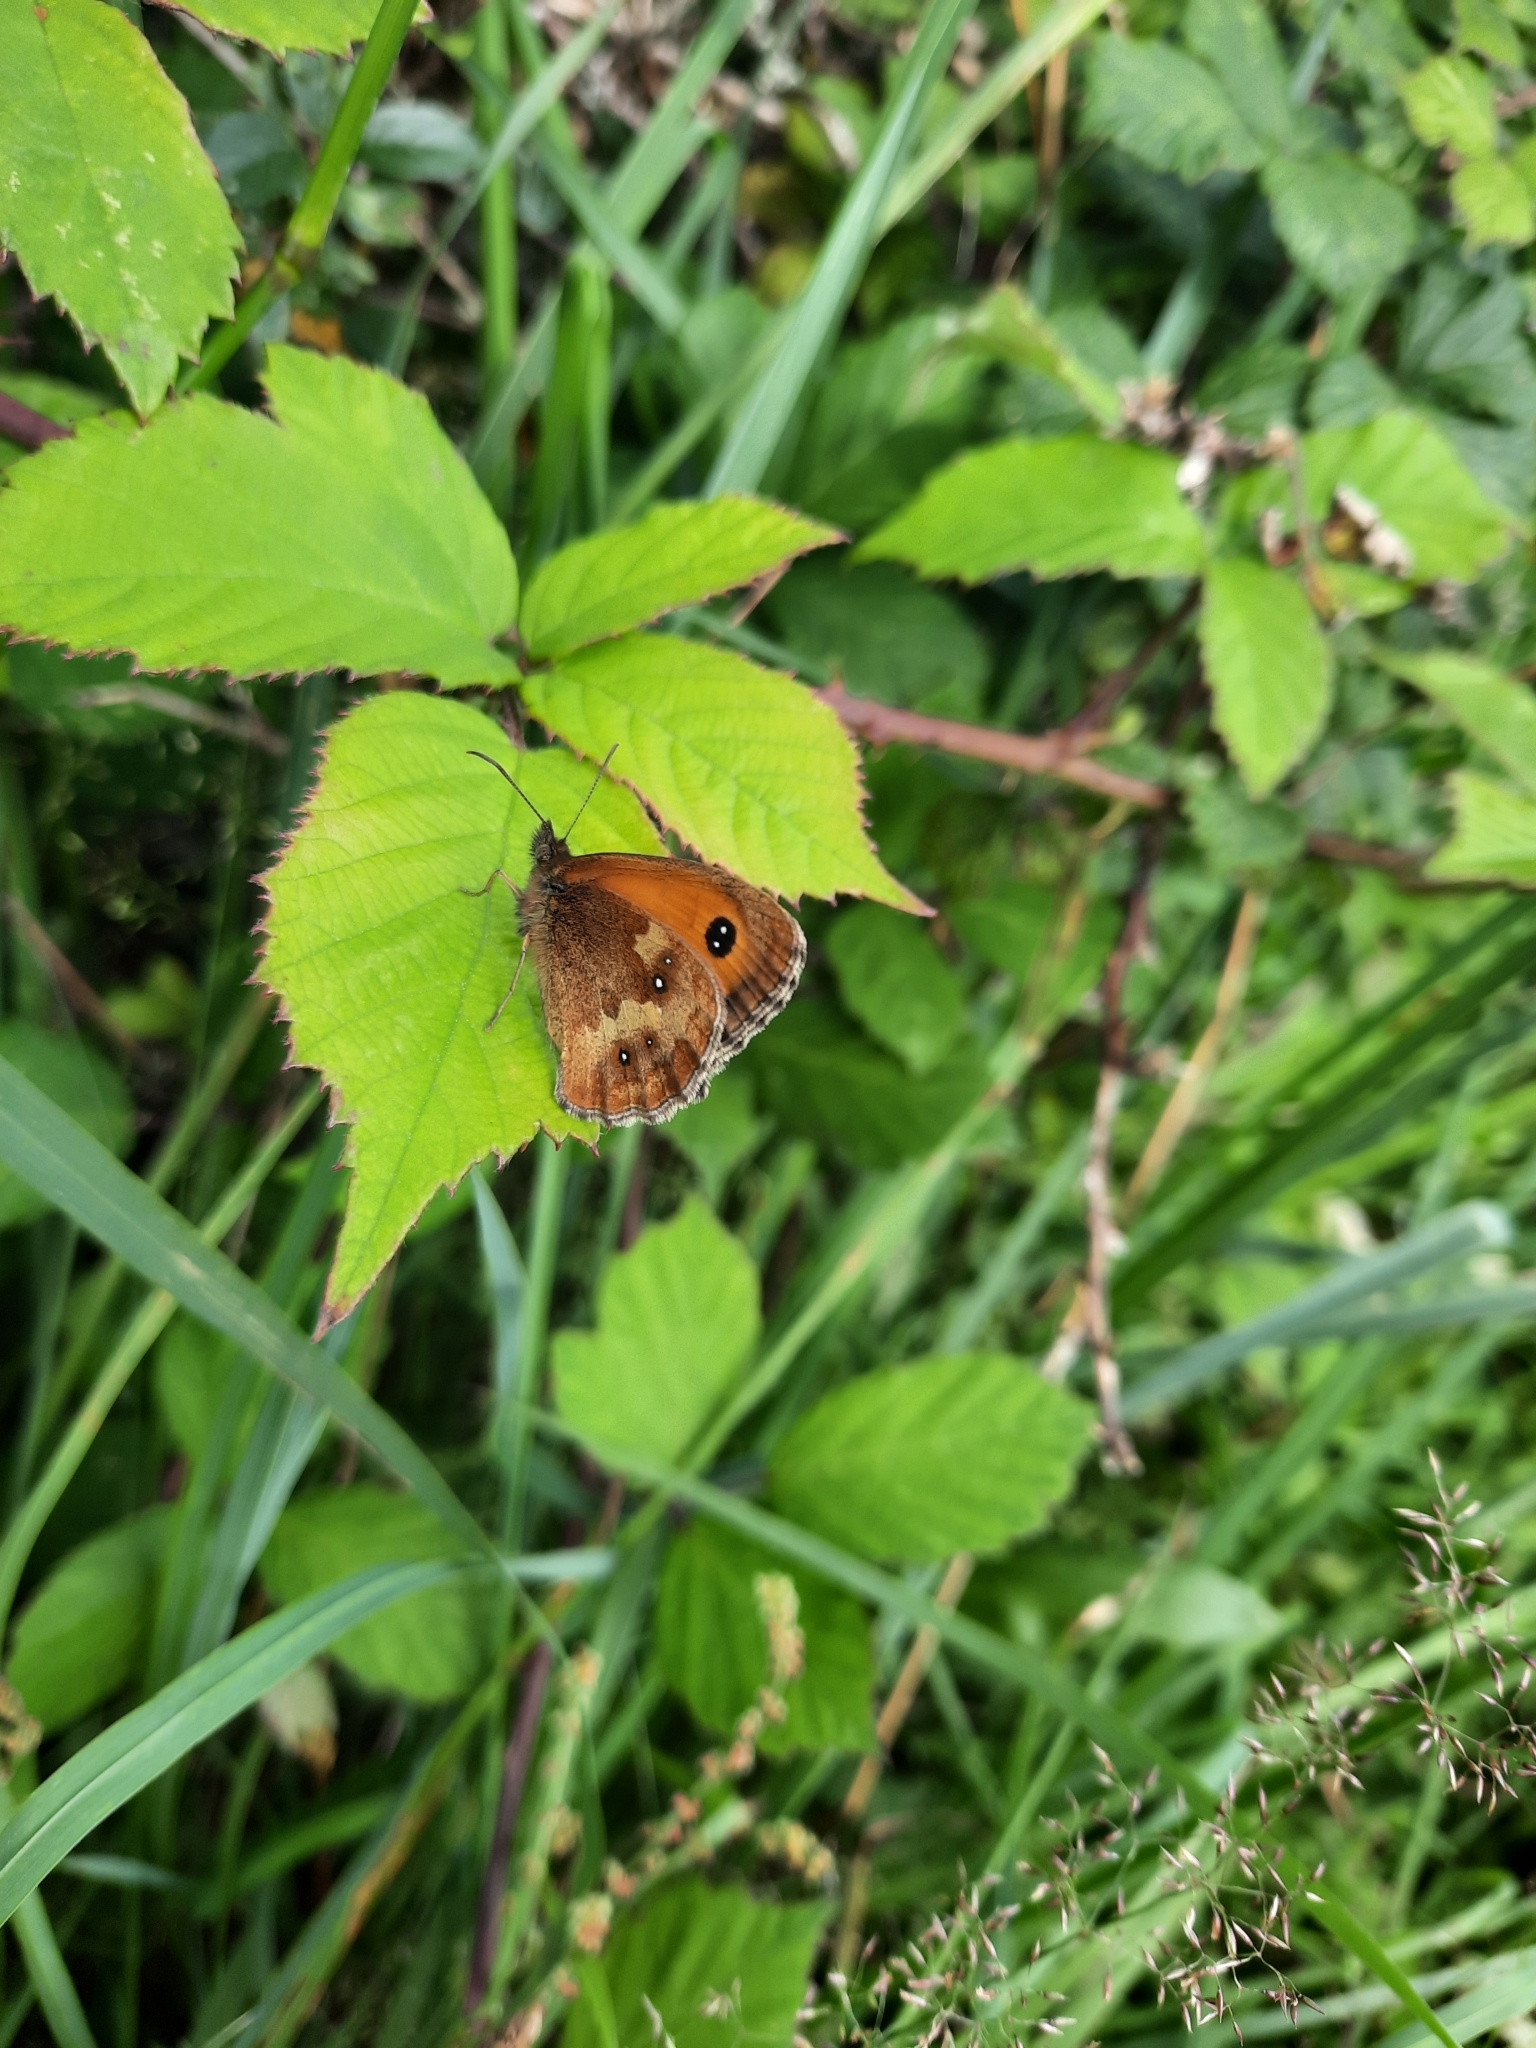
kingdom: Animalia
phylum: Arthropoda
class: Insecta
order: Lepidoptera
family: Nymphalidae
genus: Pyronia
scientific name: Pyronia tithonus
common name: Gatekeeper
